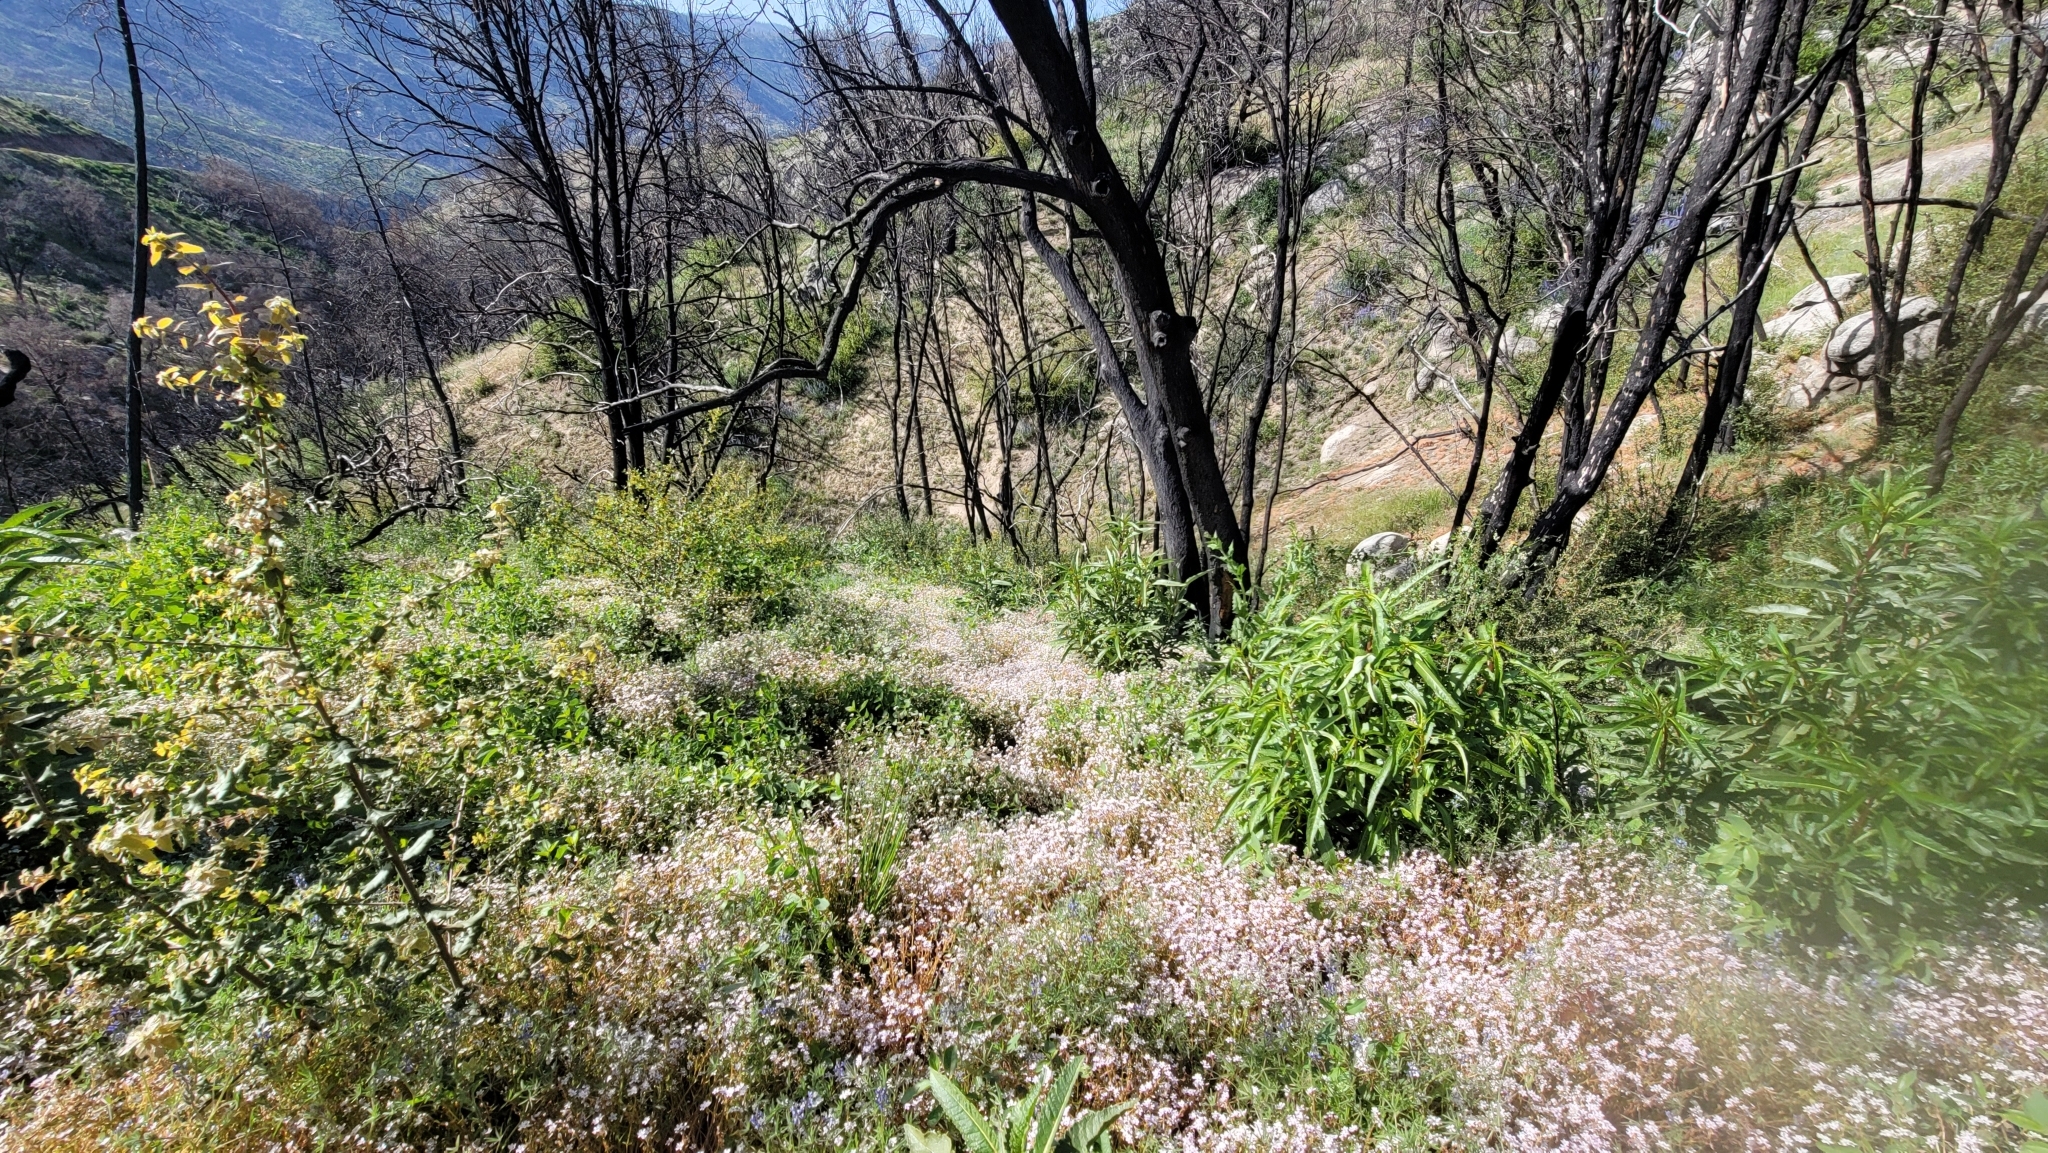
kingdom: Plantae
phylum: Tracheophyta
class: Magnoliopsida
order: Caryophyllales
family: Montiaceae
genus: Claytonia
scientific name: Claytonia parviflora
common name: Indian-lettuce
